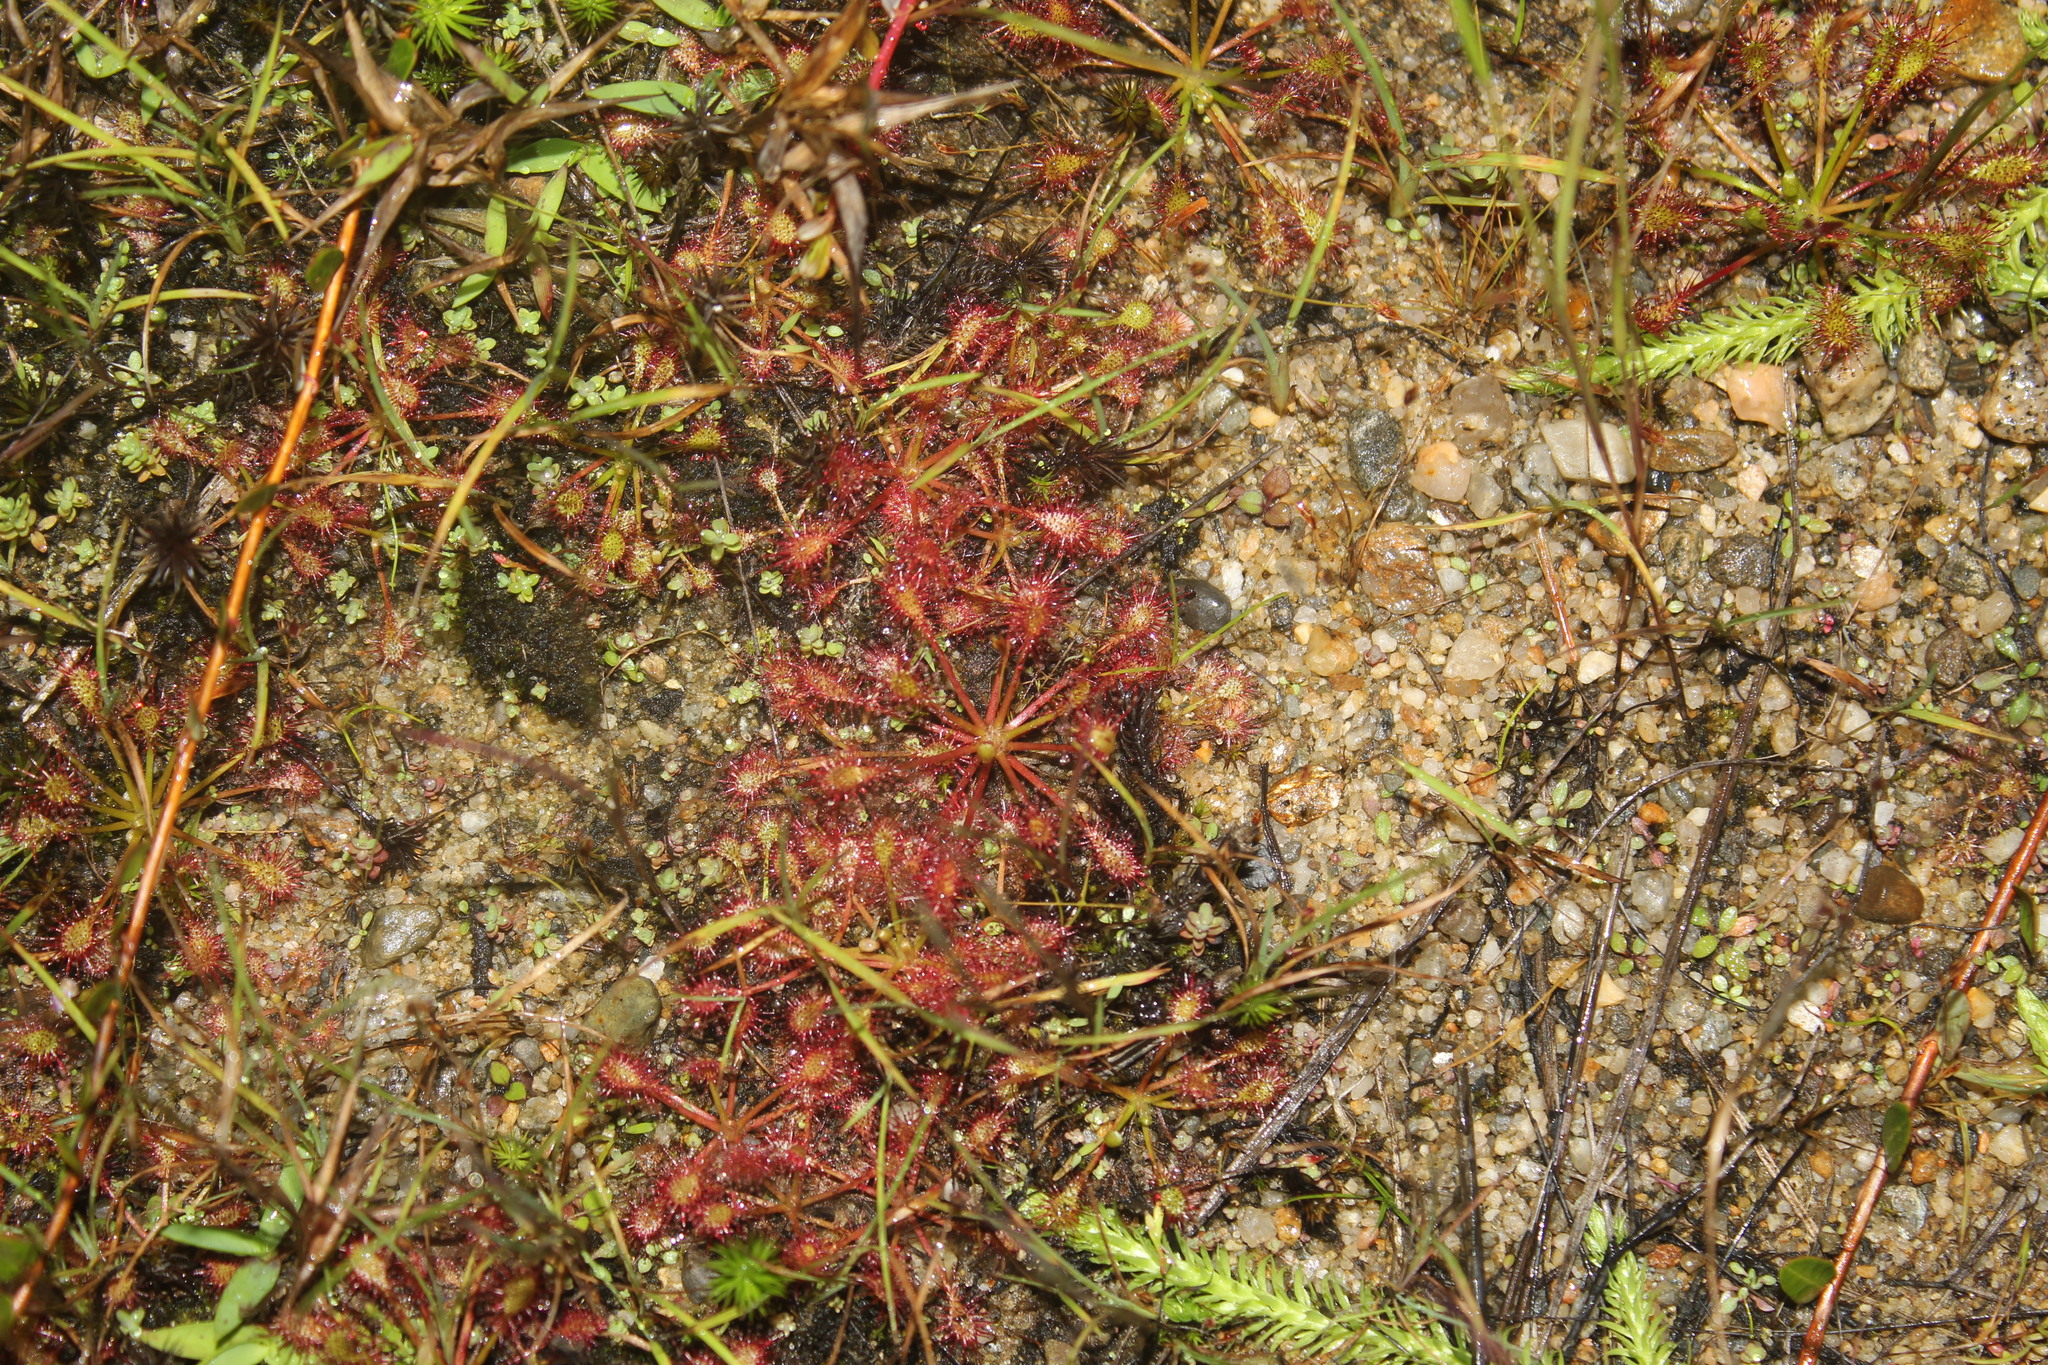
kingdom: Plantae
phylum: Tracheophyta
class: Magnoliopsida
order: Caryophyllales
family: Droseraceae
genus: Drosera
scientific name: Drosera intermedia
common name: Oblong-leaved sundew
